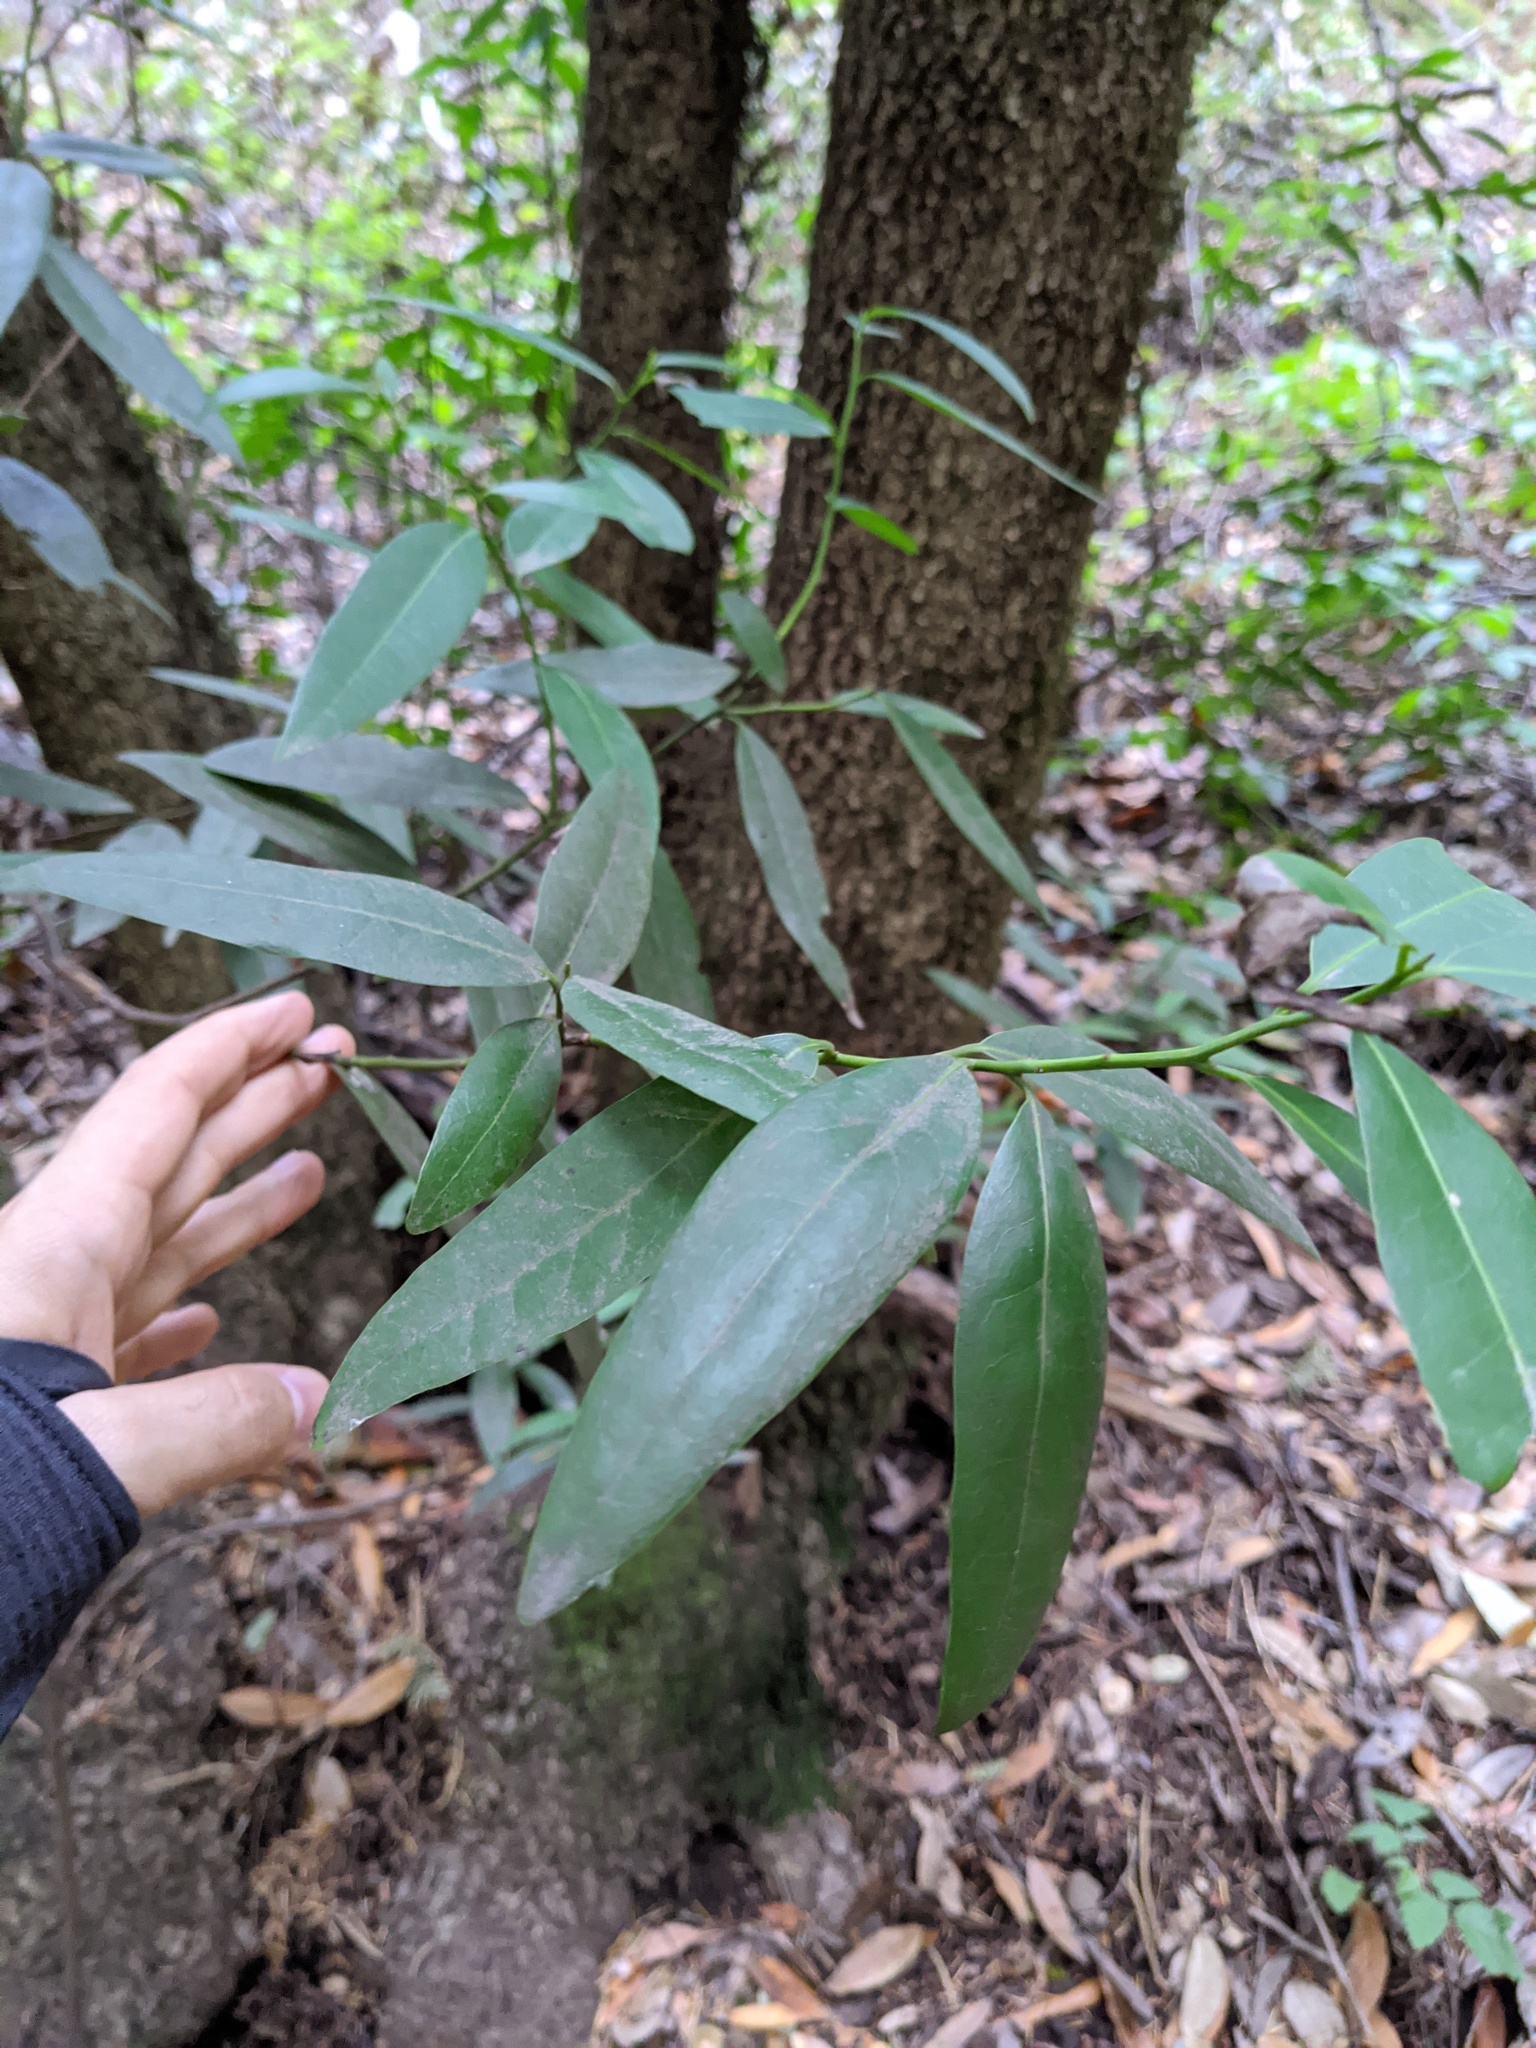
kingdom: Plantae
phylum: Tracheophyta
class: Magnoliopsida
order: Laurales
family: Lauraceae
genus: Umbellularia
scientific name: Umbellularia californica
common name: California bay
